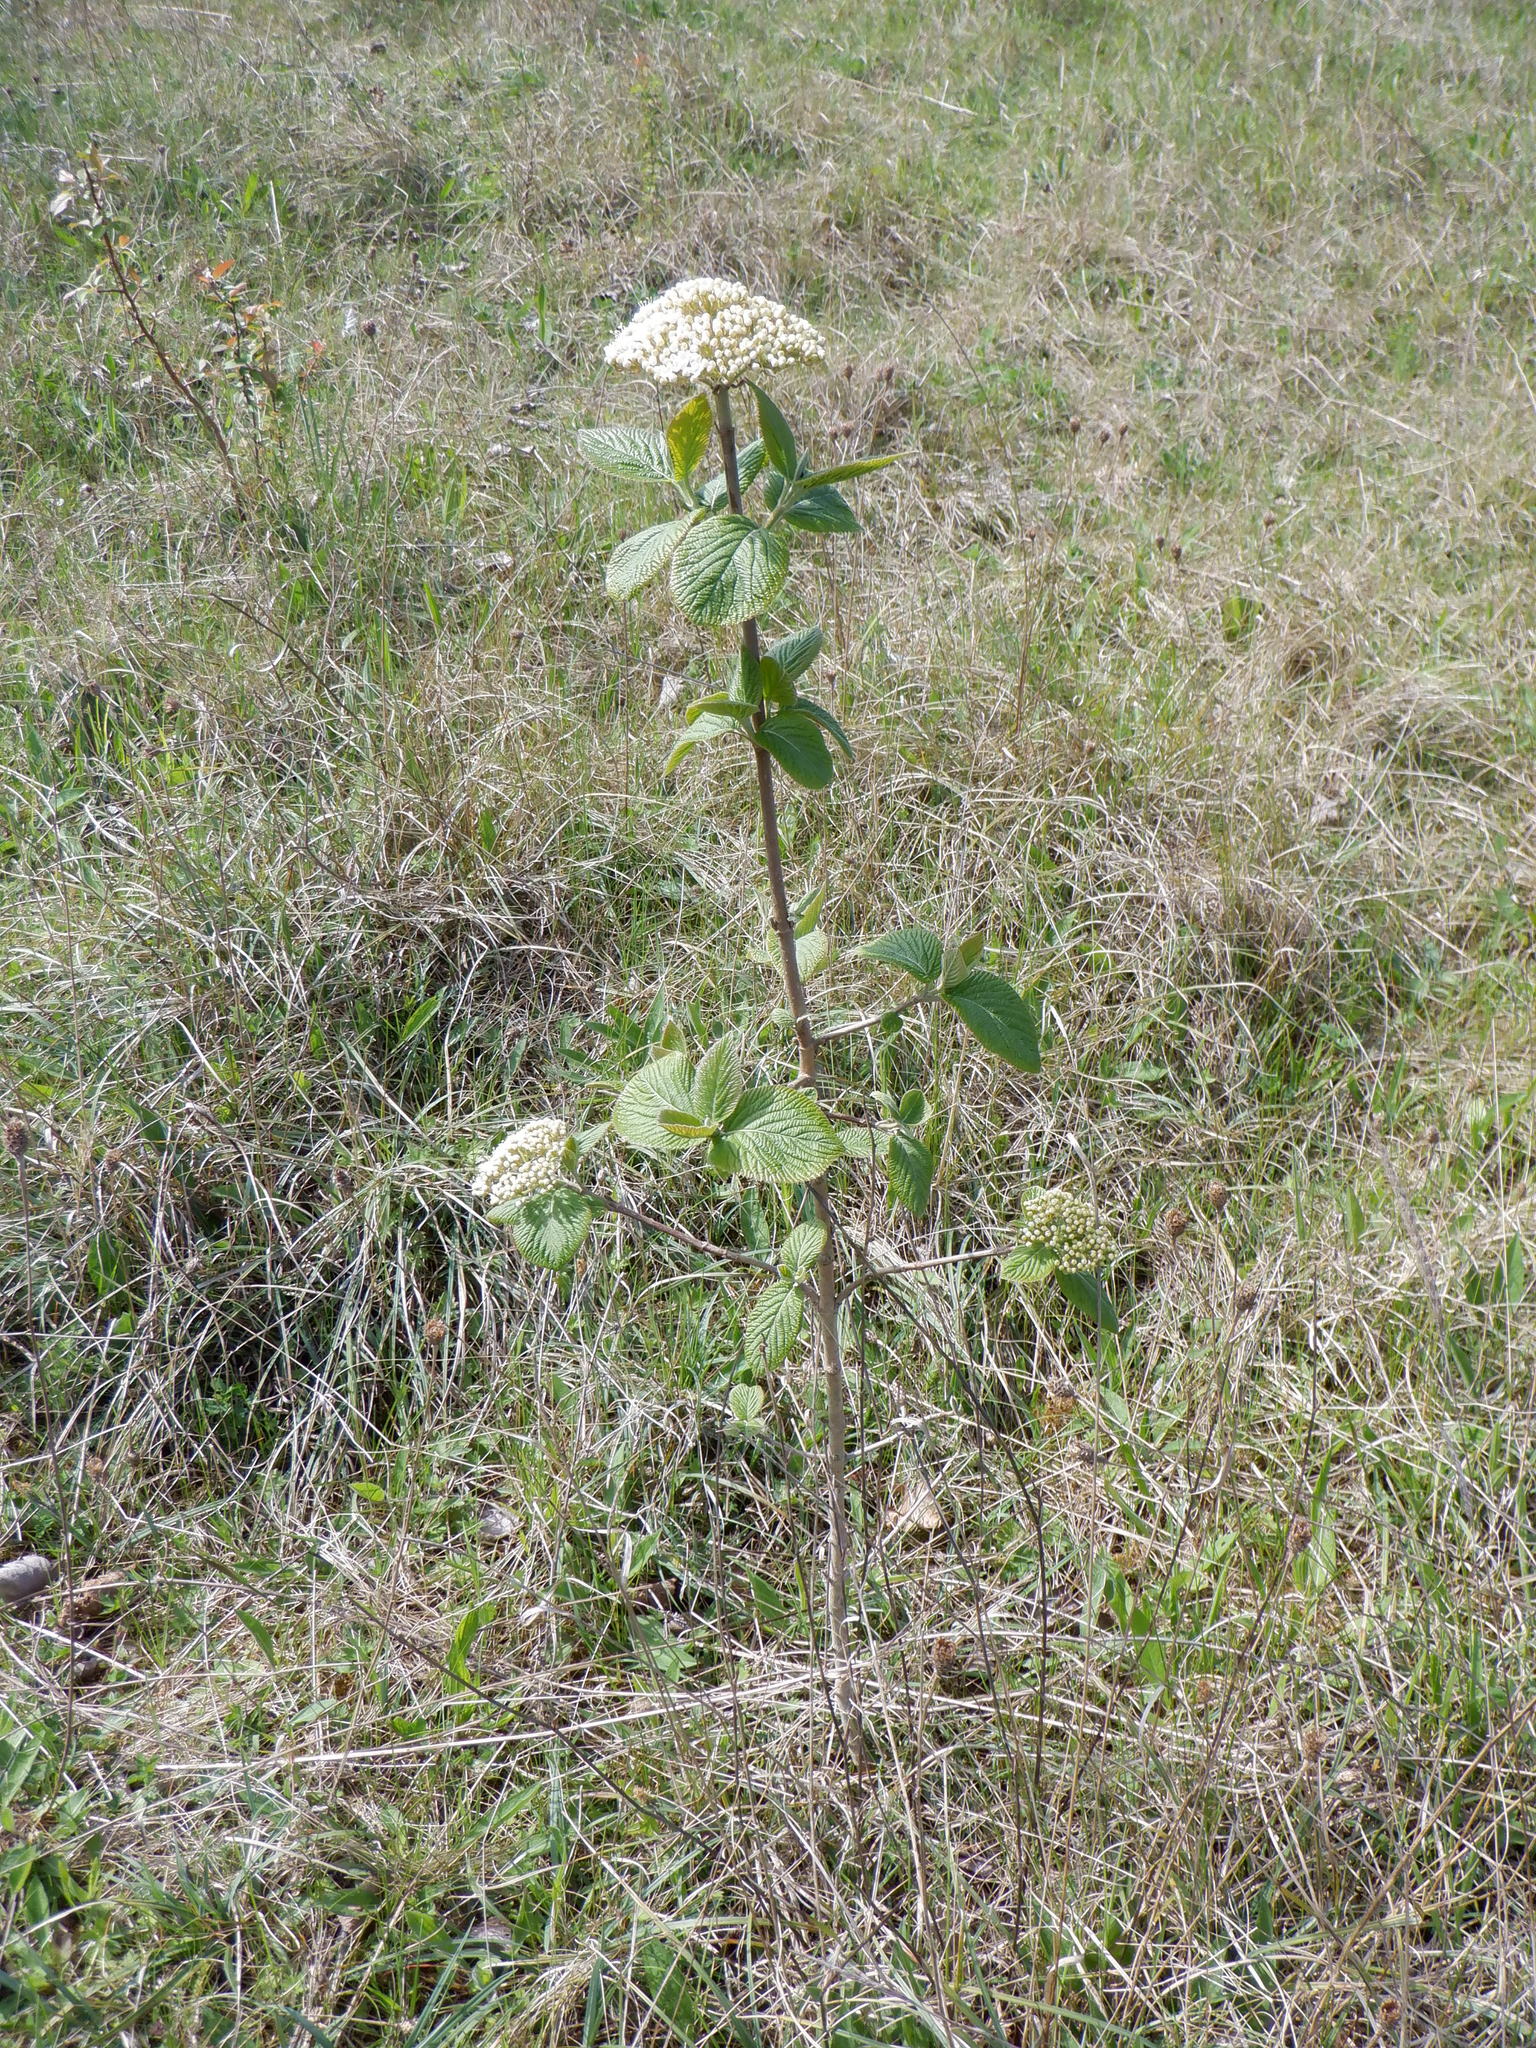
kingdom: Plantae
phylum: Tracheophyta
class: Magnoliopsida
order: Dipsacales
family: Viburnaceae
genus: Viburnum
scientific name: Viburnum lantana
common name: Wayfaring tree
